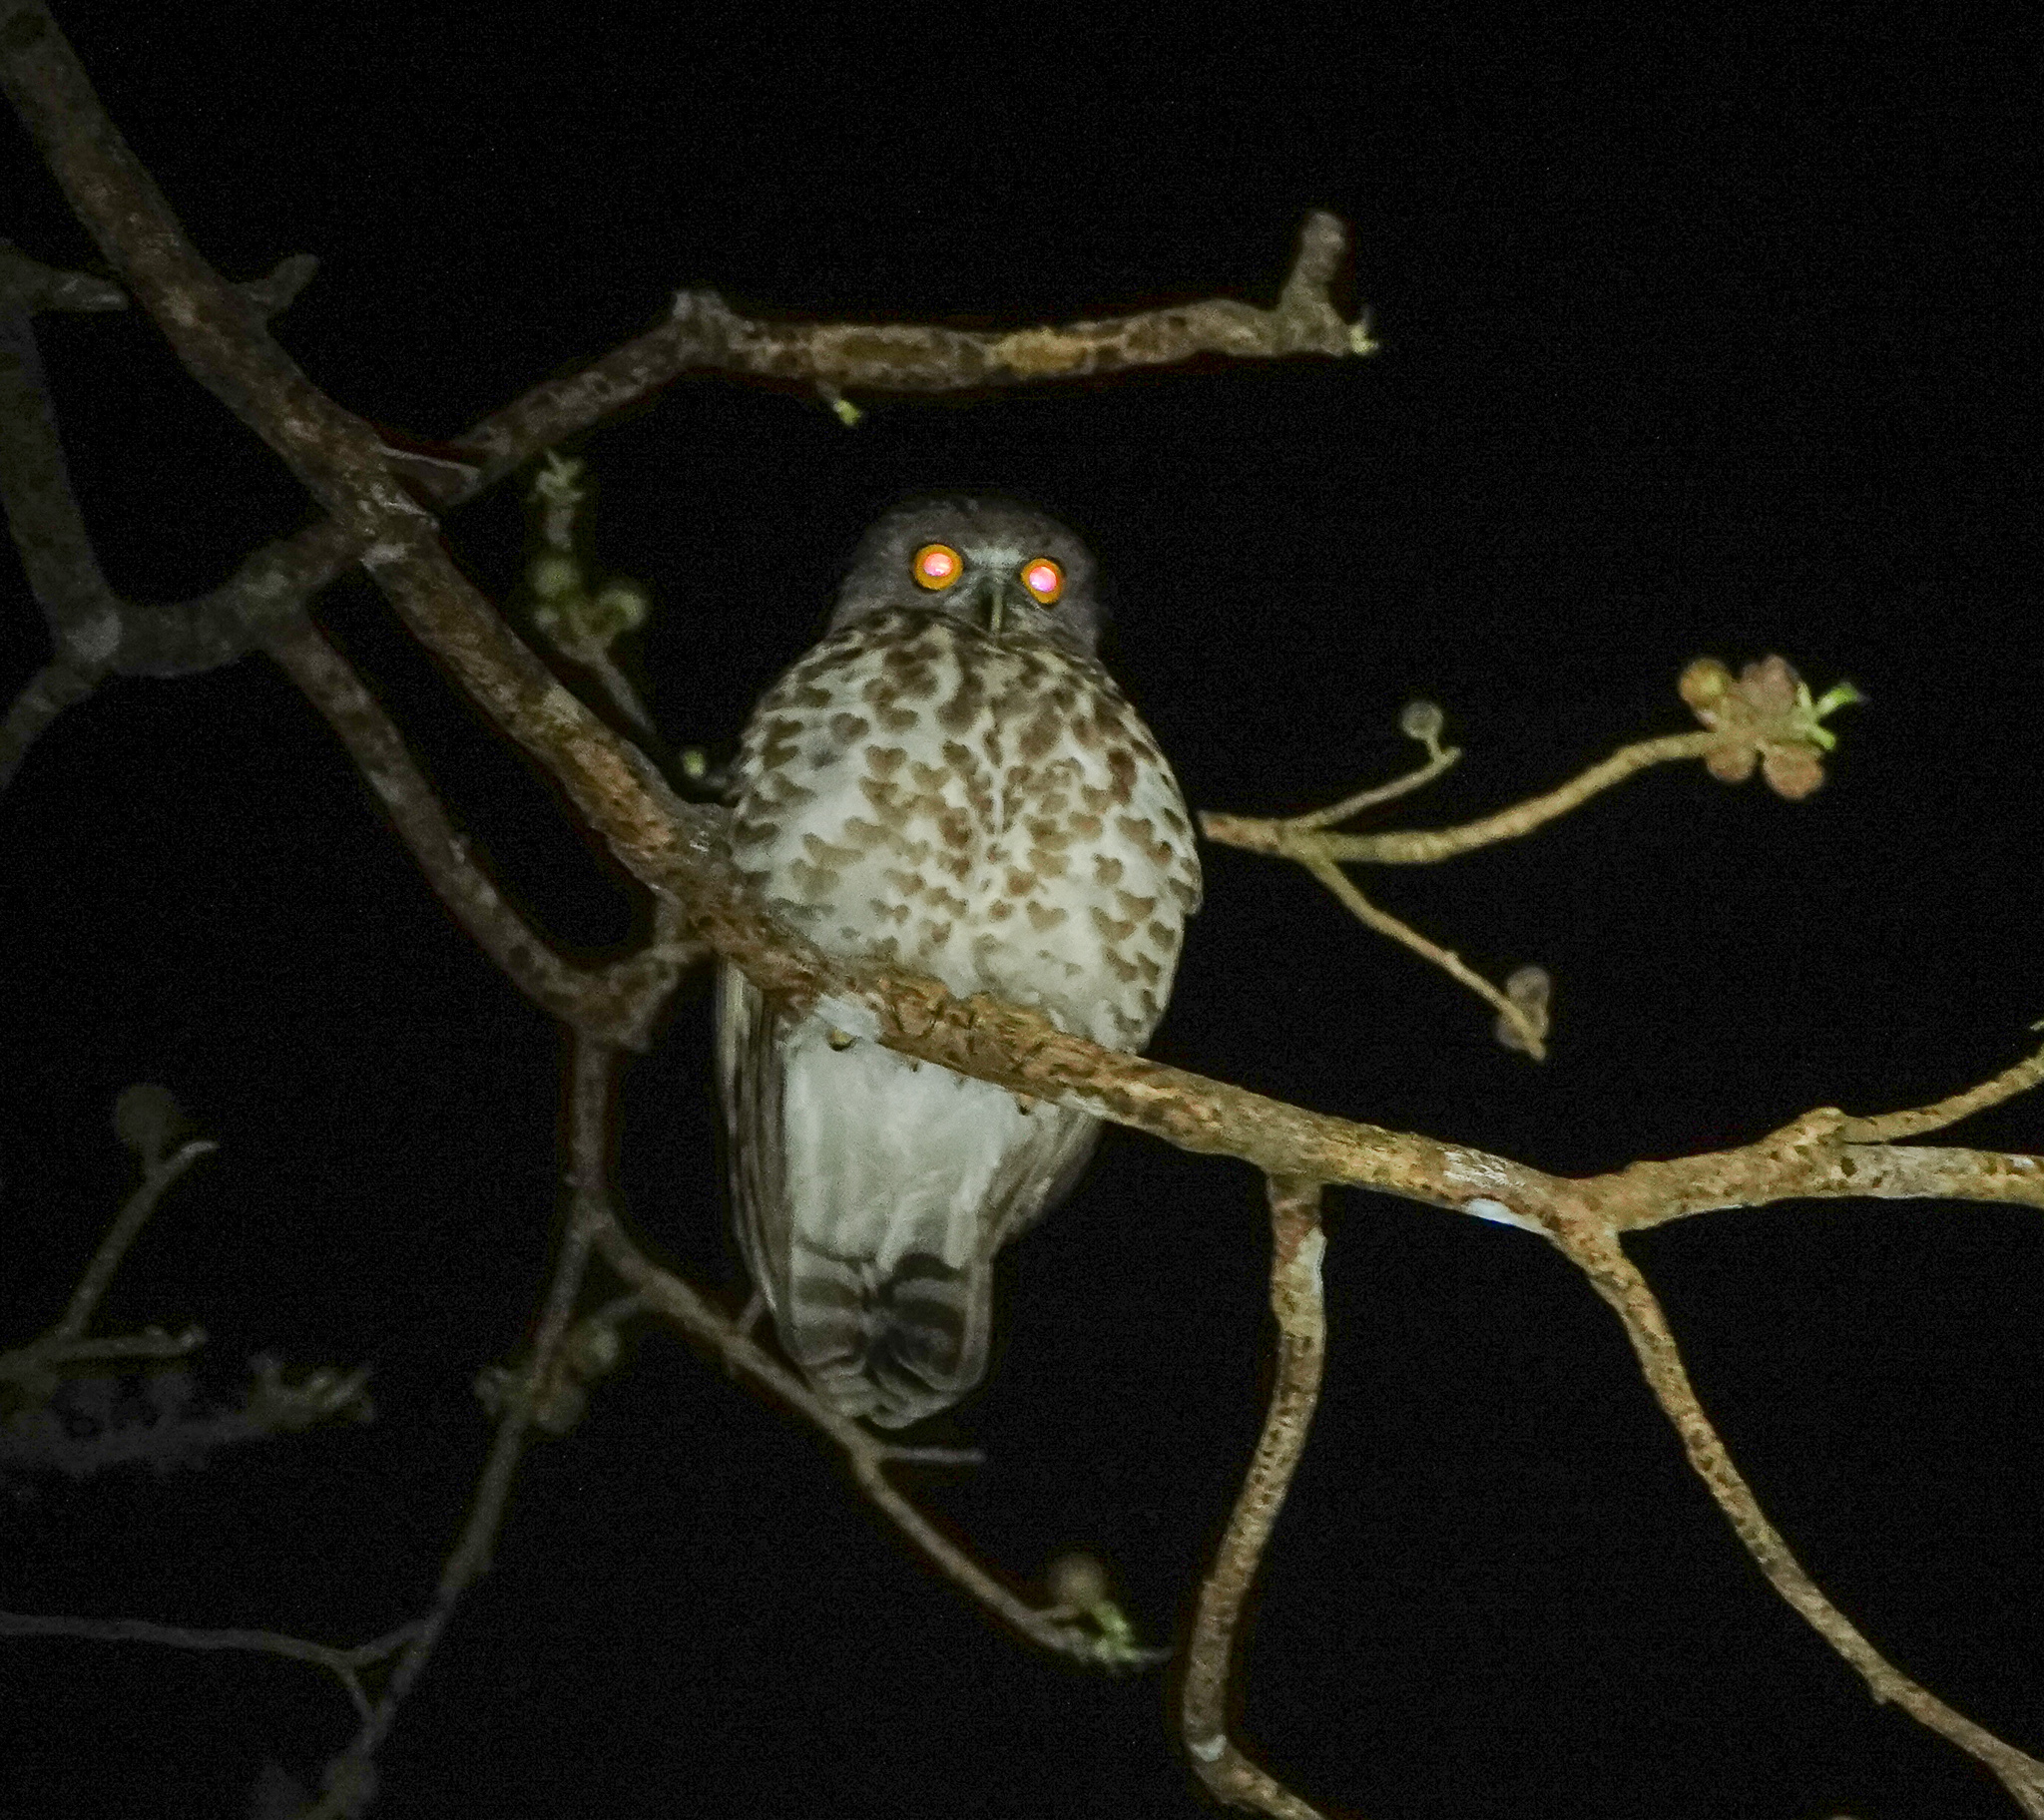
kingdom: Animalia
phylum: Chordata
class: Aves
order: Strigiformes
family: Strigidae
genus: Ninox
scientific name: Ninox scutulata
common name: Brown hawk-owl
